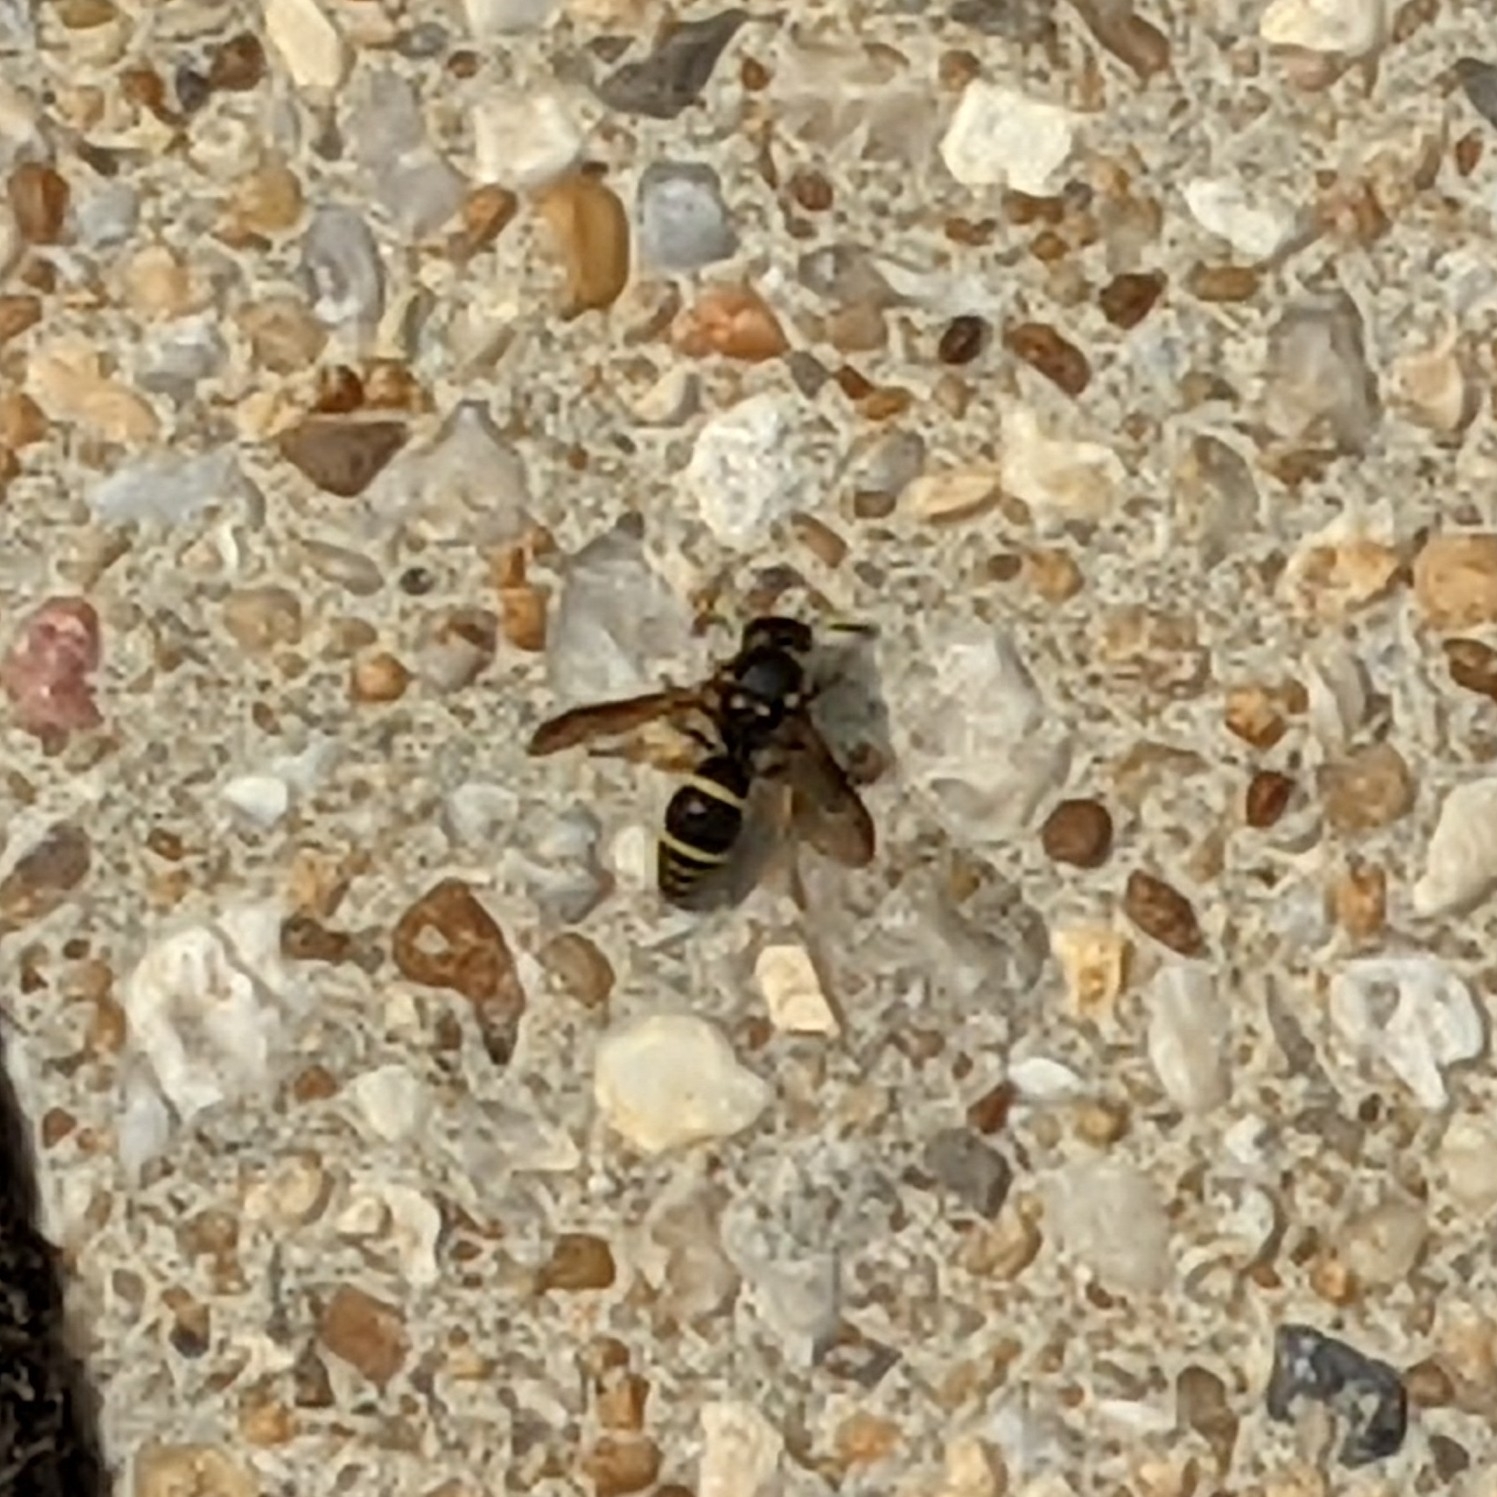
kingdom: Animalia
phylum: Arthropoda
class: Insecta
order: Hymenoptera
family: Vespidae
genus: Ancistrocerus
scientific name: Ancistrocerus
